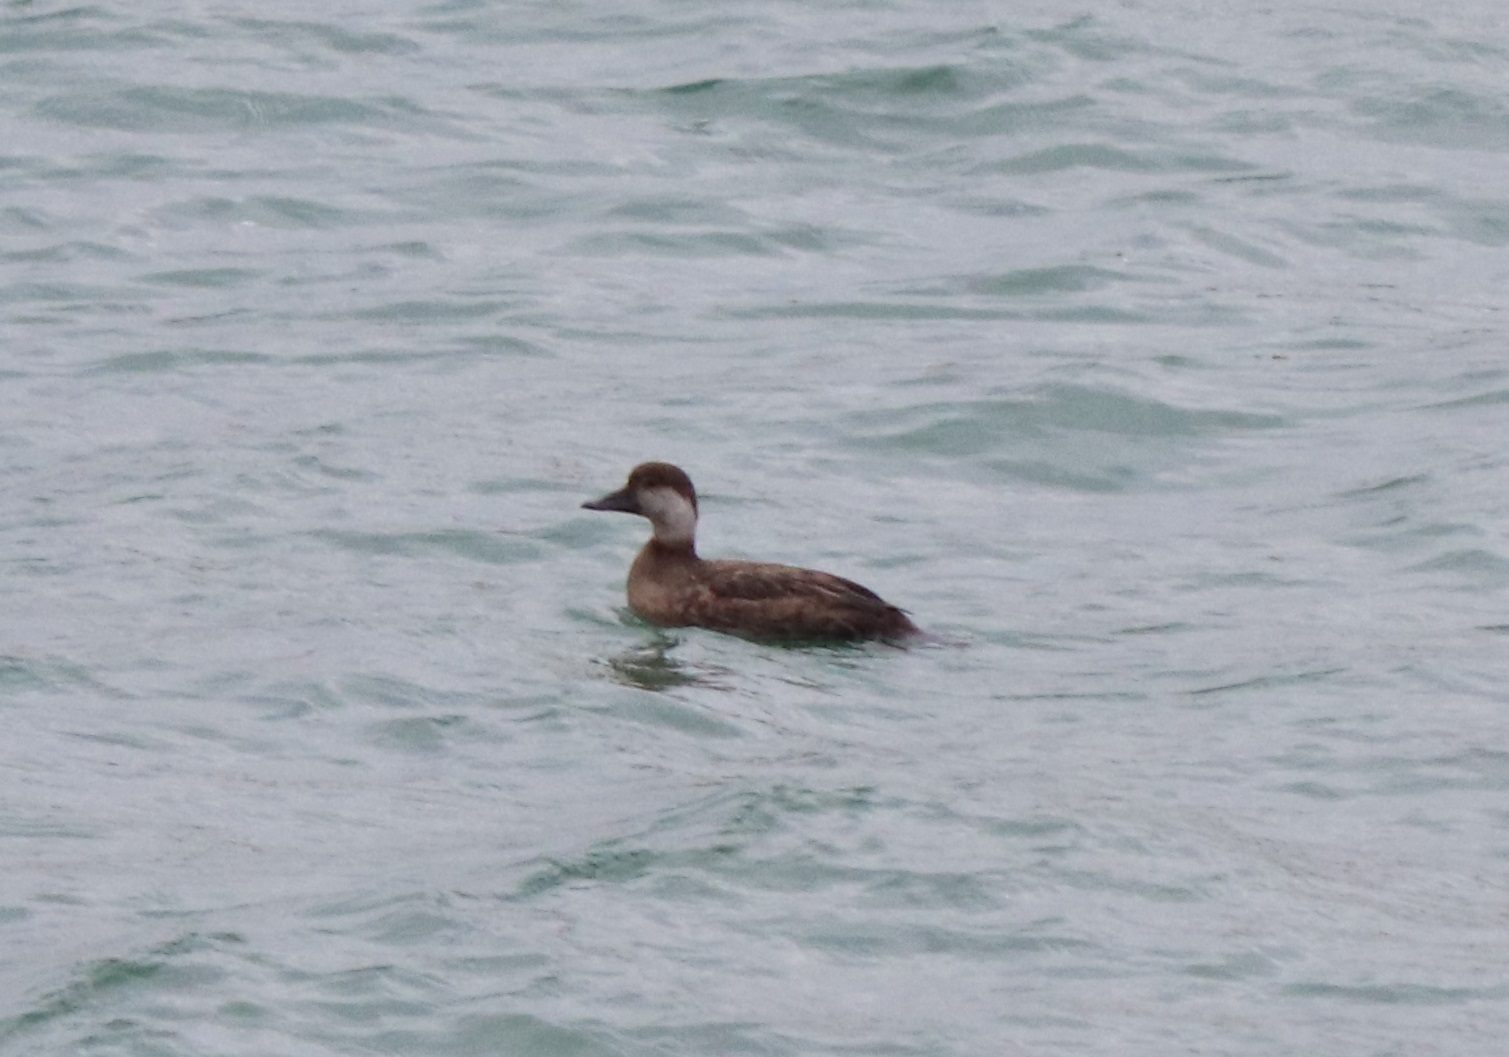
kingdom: Animalia
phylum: Chordata
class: Aves
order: Anseriformes
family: Anatidae
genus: Melanitta
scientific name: Melanitta americana
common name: Black scoter
